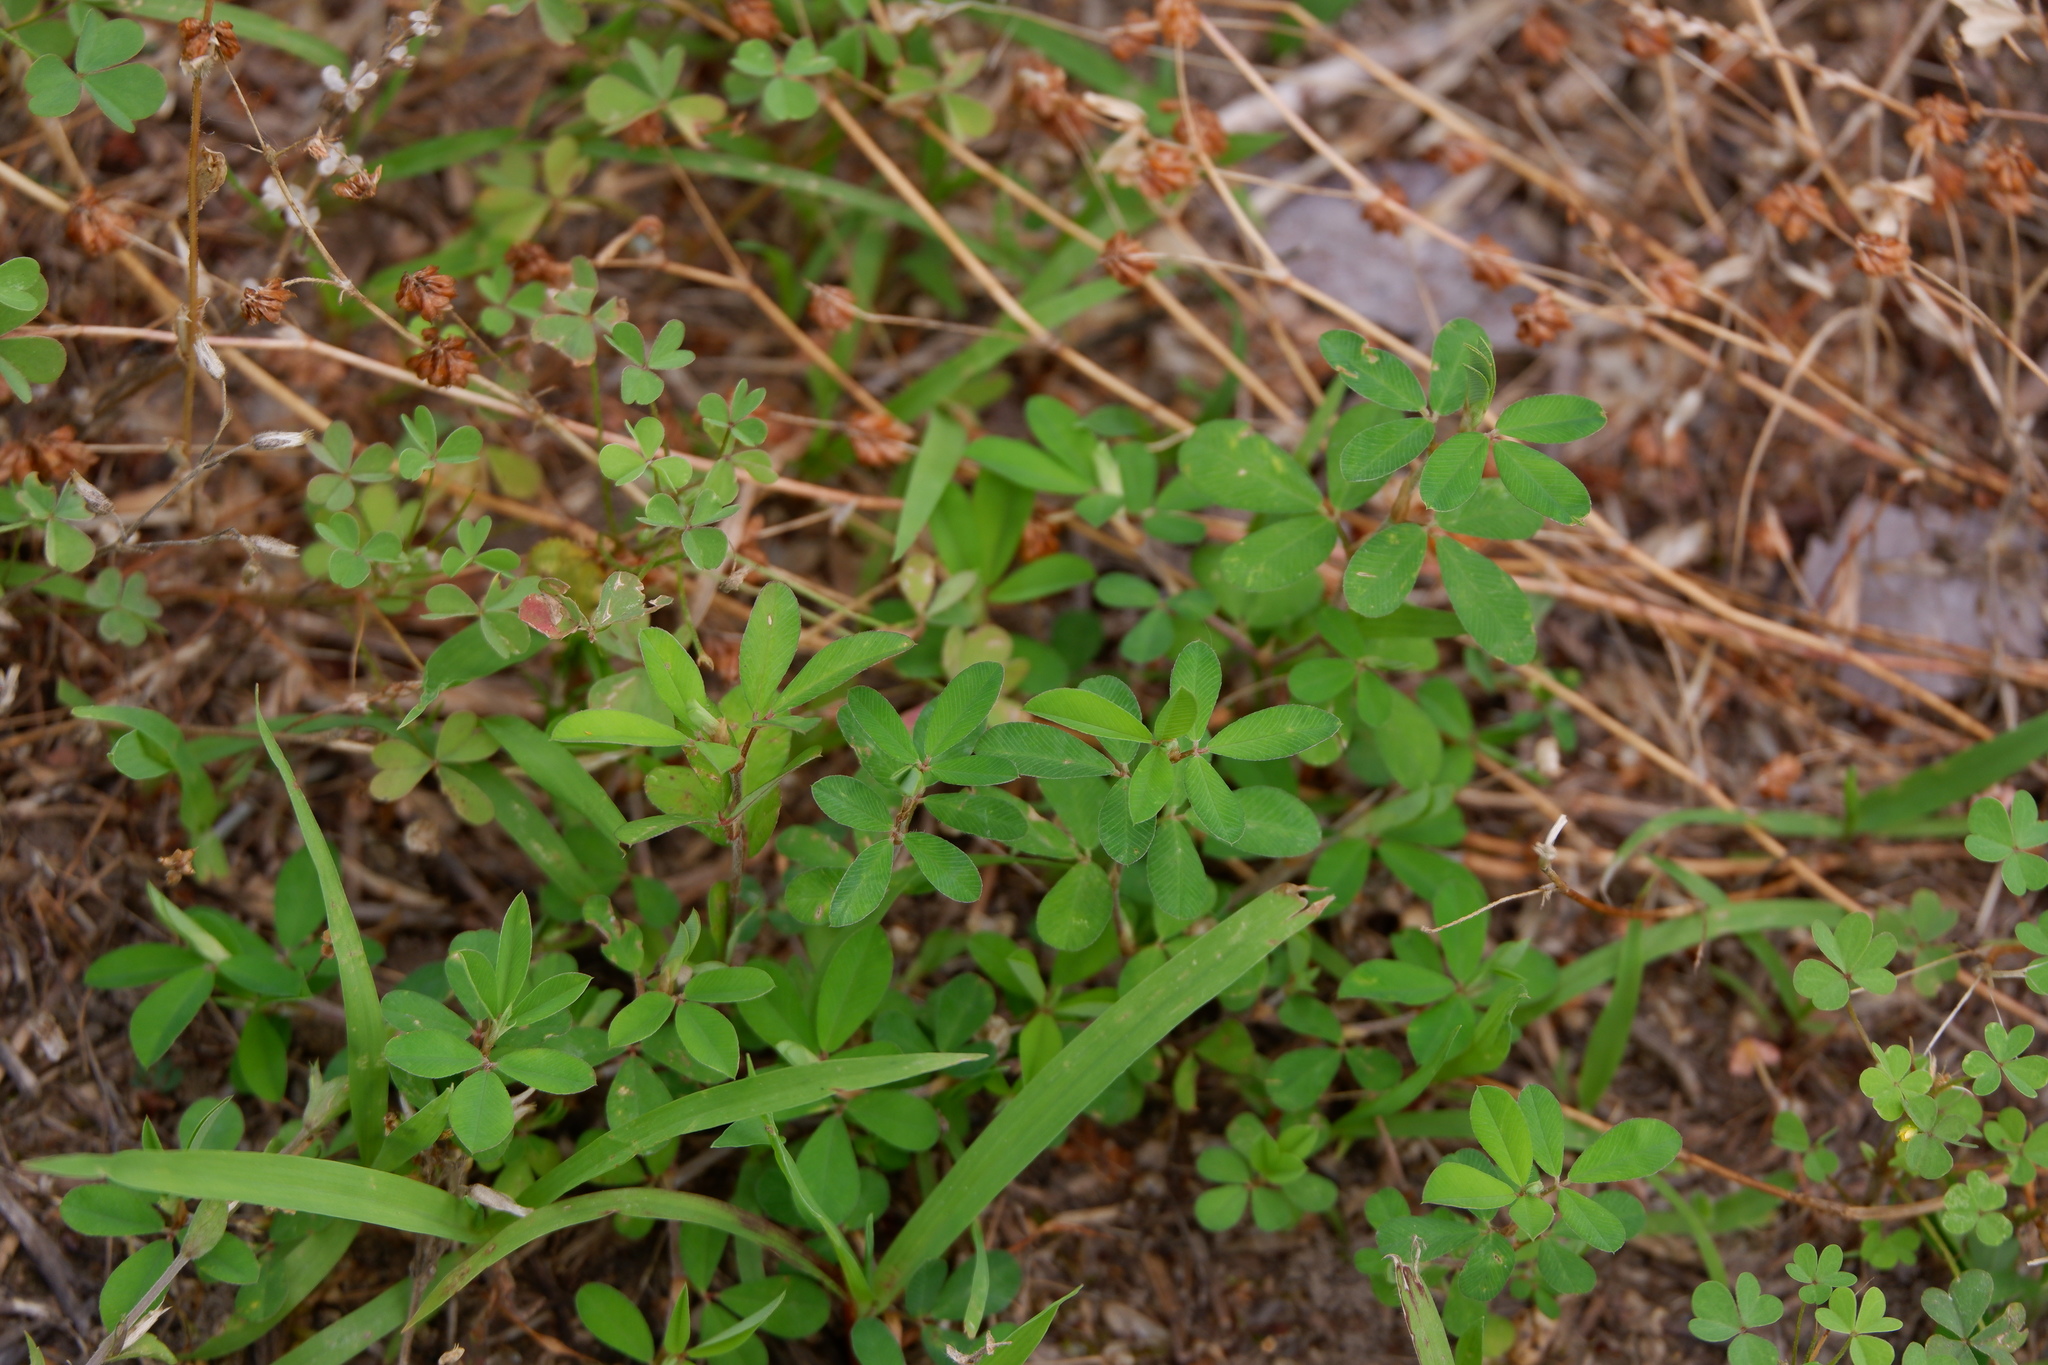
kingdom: Plantae
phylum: Tracheophyta
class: Magnoliopsida
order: Fabales
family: Fabaceae
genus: Kummerowia
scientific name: Kummerowia striata
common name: Japanese clover
